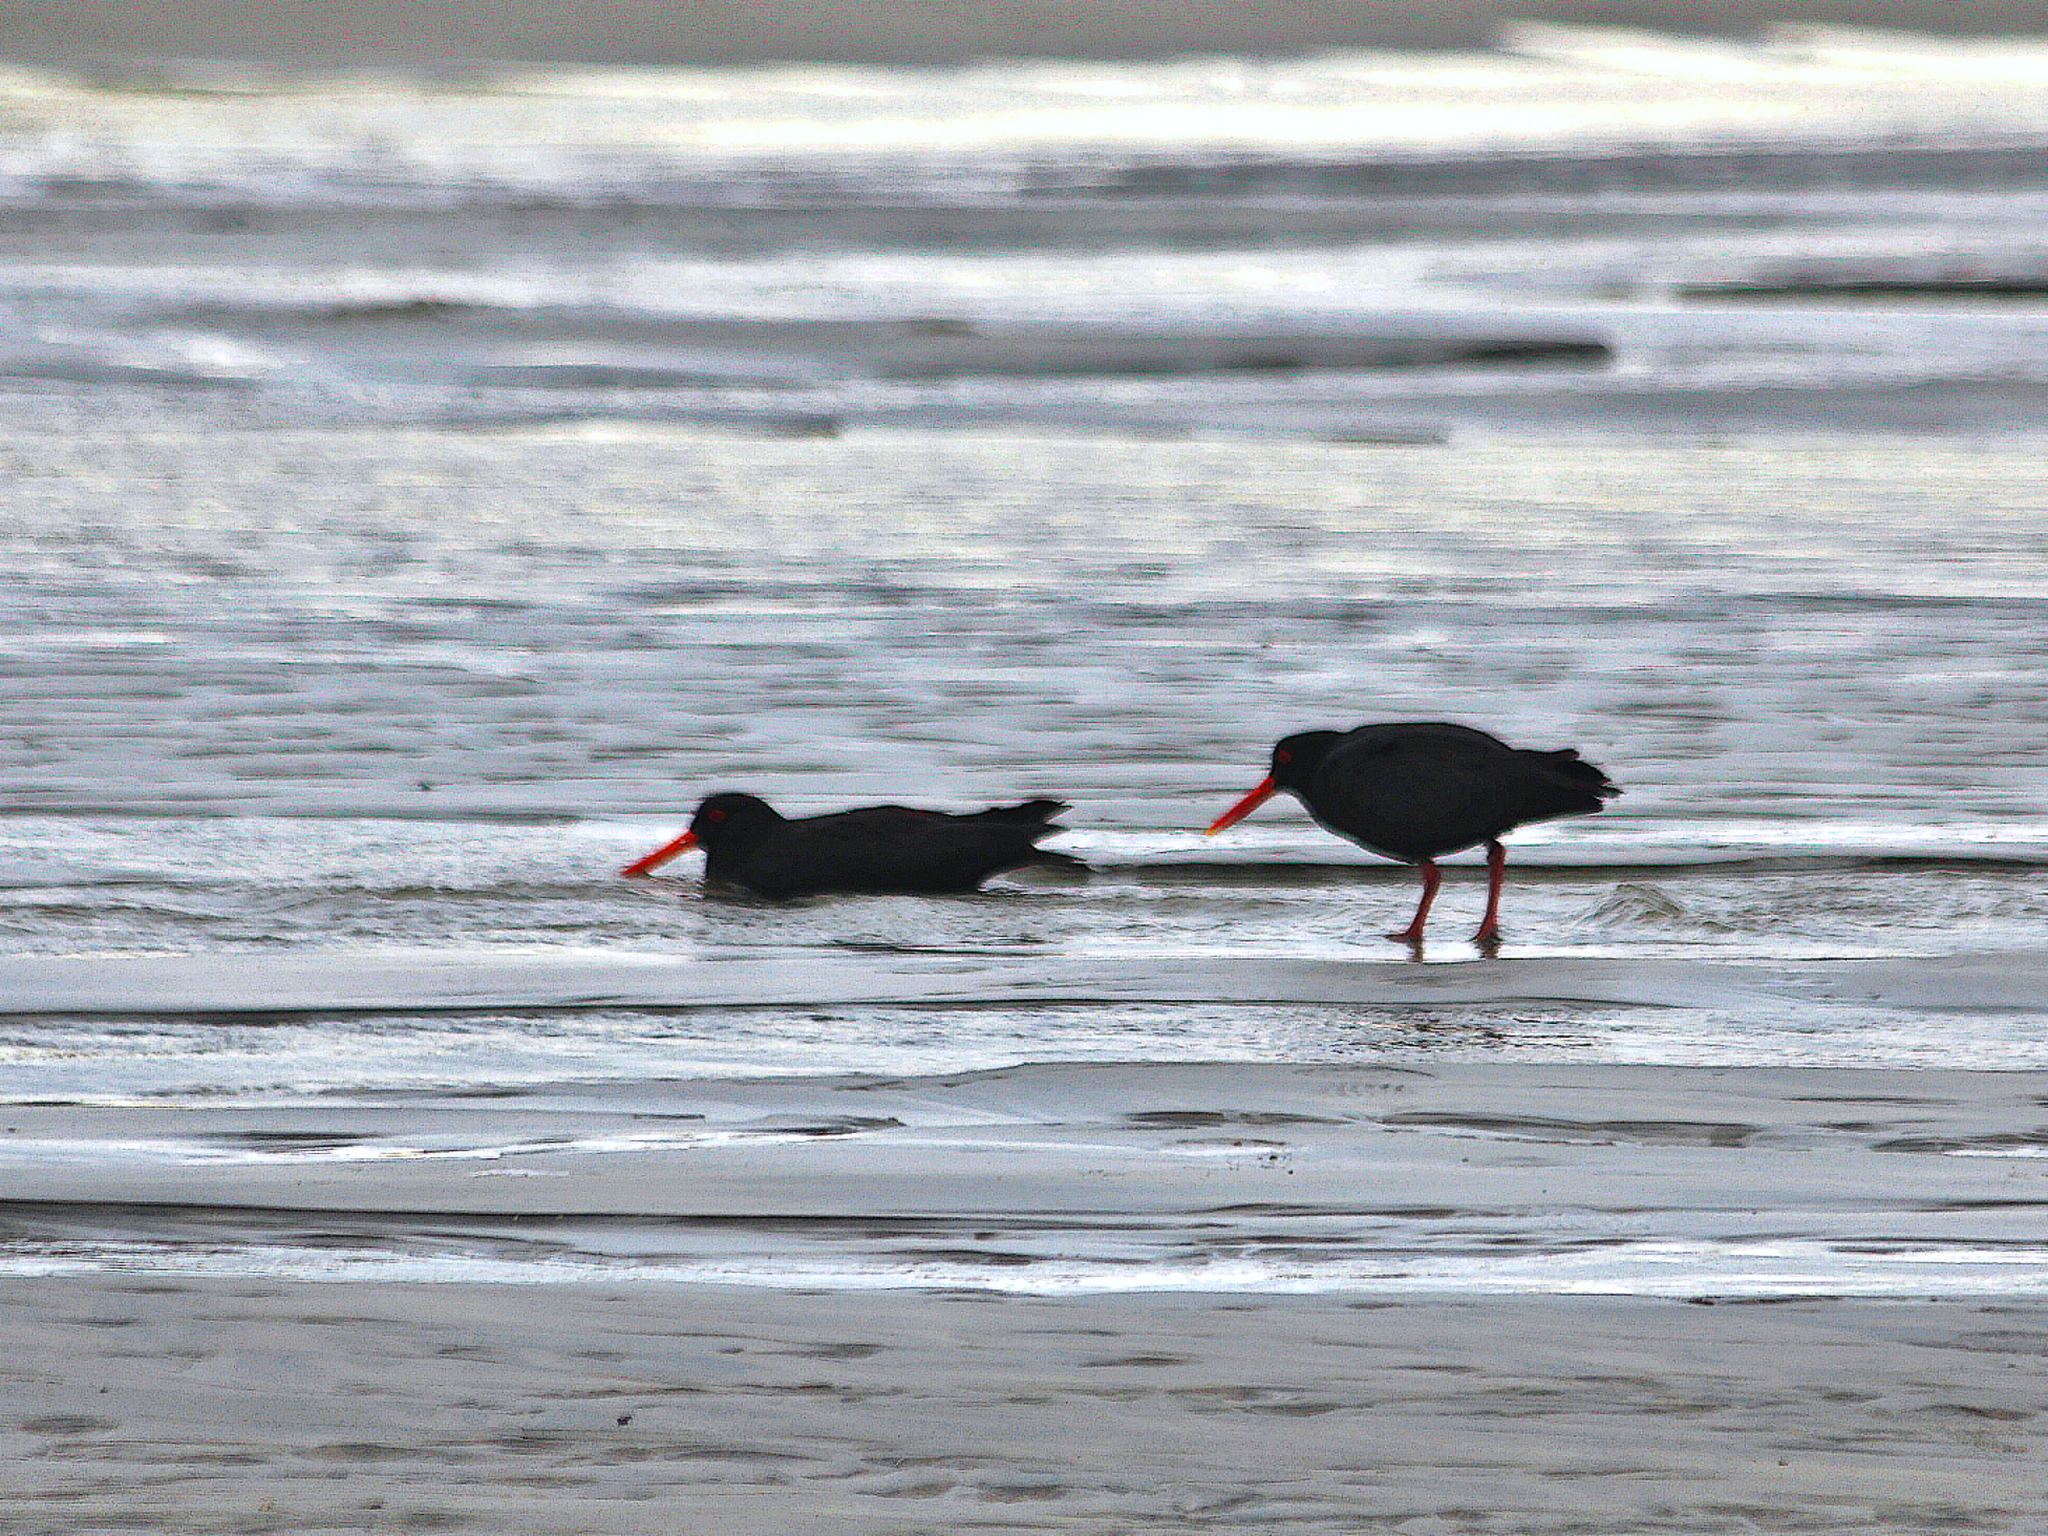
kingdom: Animalia
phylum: Chordata
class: Aves
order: Charadriiformes
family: Haematopodidae
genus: Haematopus
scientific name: Haematopus unicolor
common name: Variable oystercatcher
